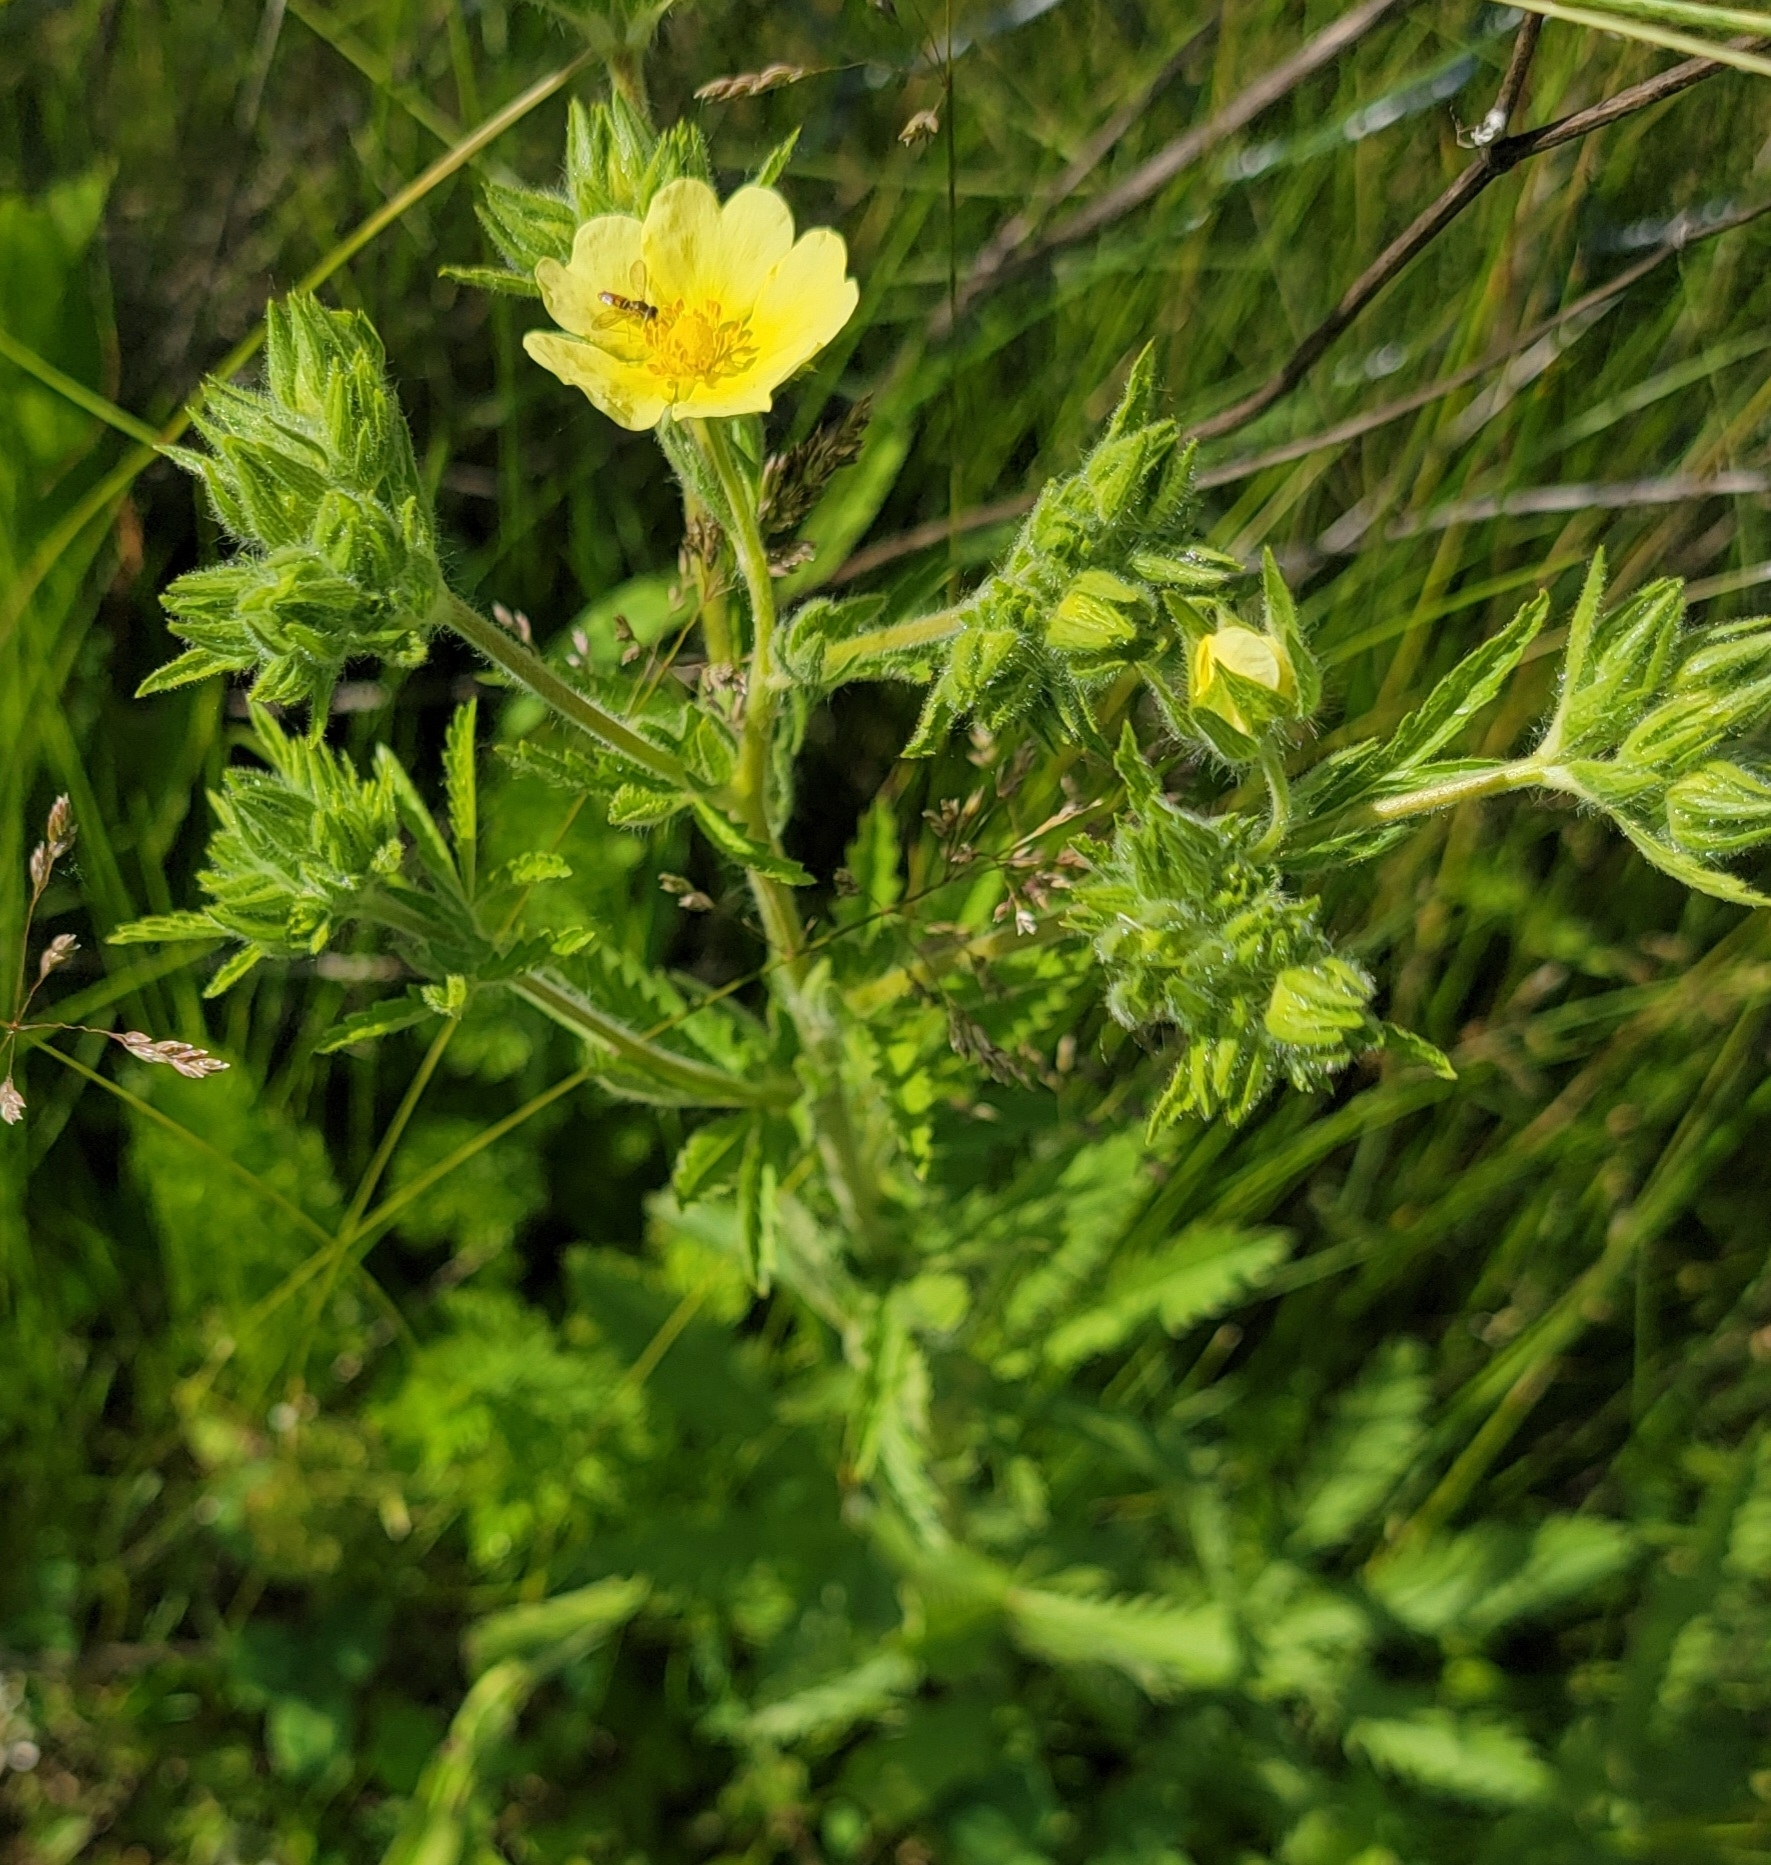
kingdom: Plantae
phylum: Tracheophyta
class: Magnoliopsida
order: Rosales
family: Rosaceae
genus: Potentilla
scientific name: Potentilla recta
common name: Sulphur cinquefoil
